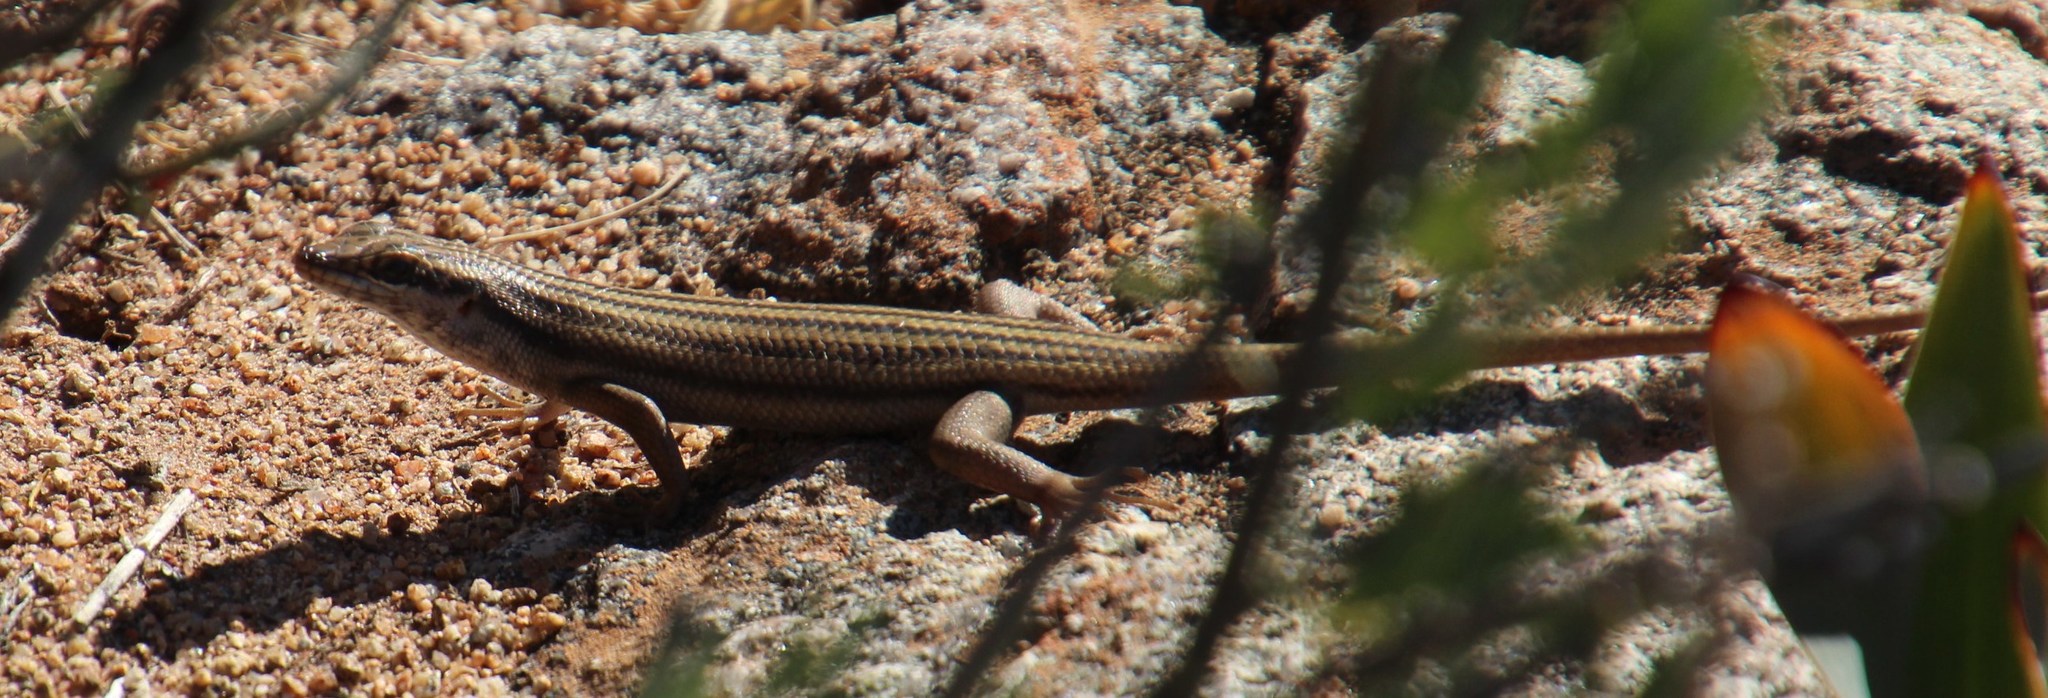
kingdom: Animalia
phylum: Chordata
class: Squamata
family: Scincidae
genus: Trachylepis
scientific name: Trachylepis sulcata
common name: Western rock skink
